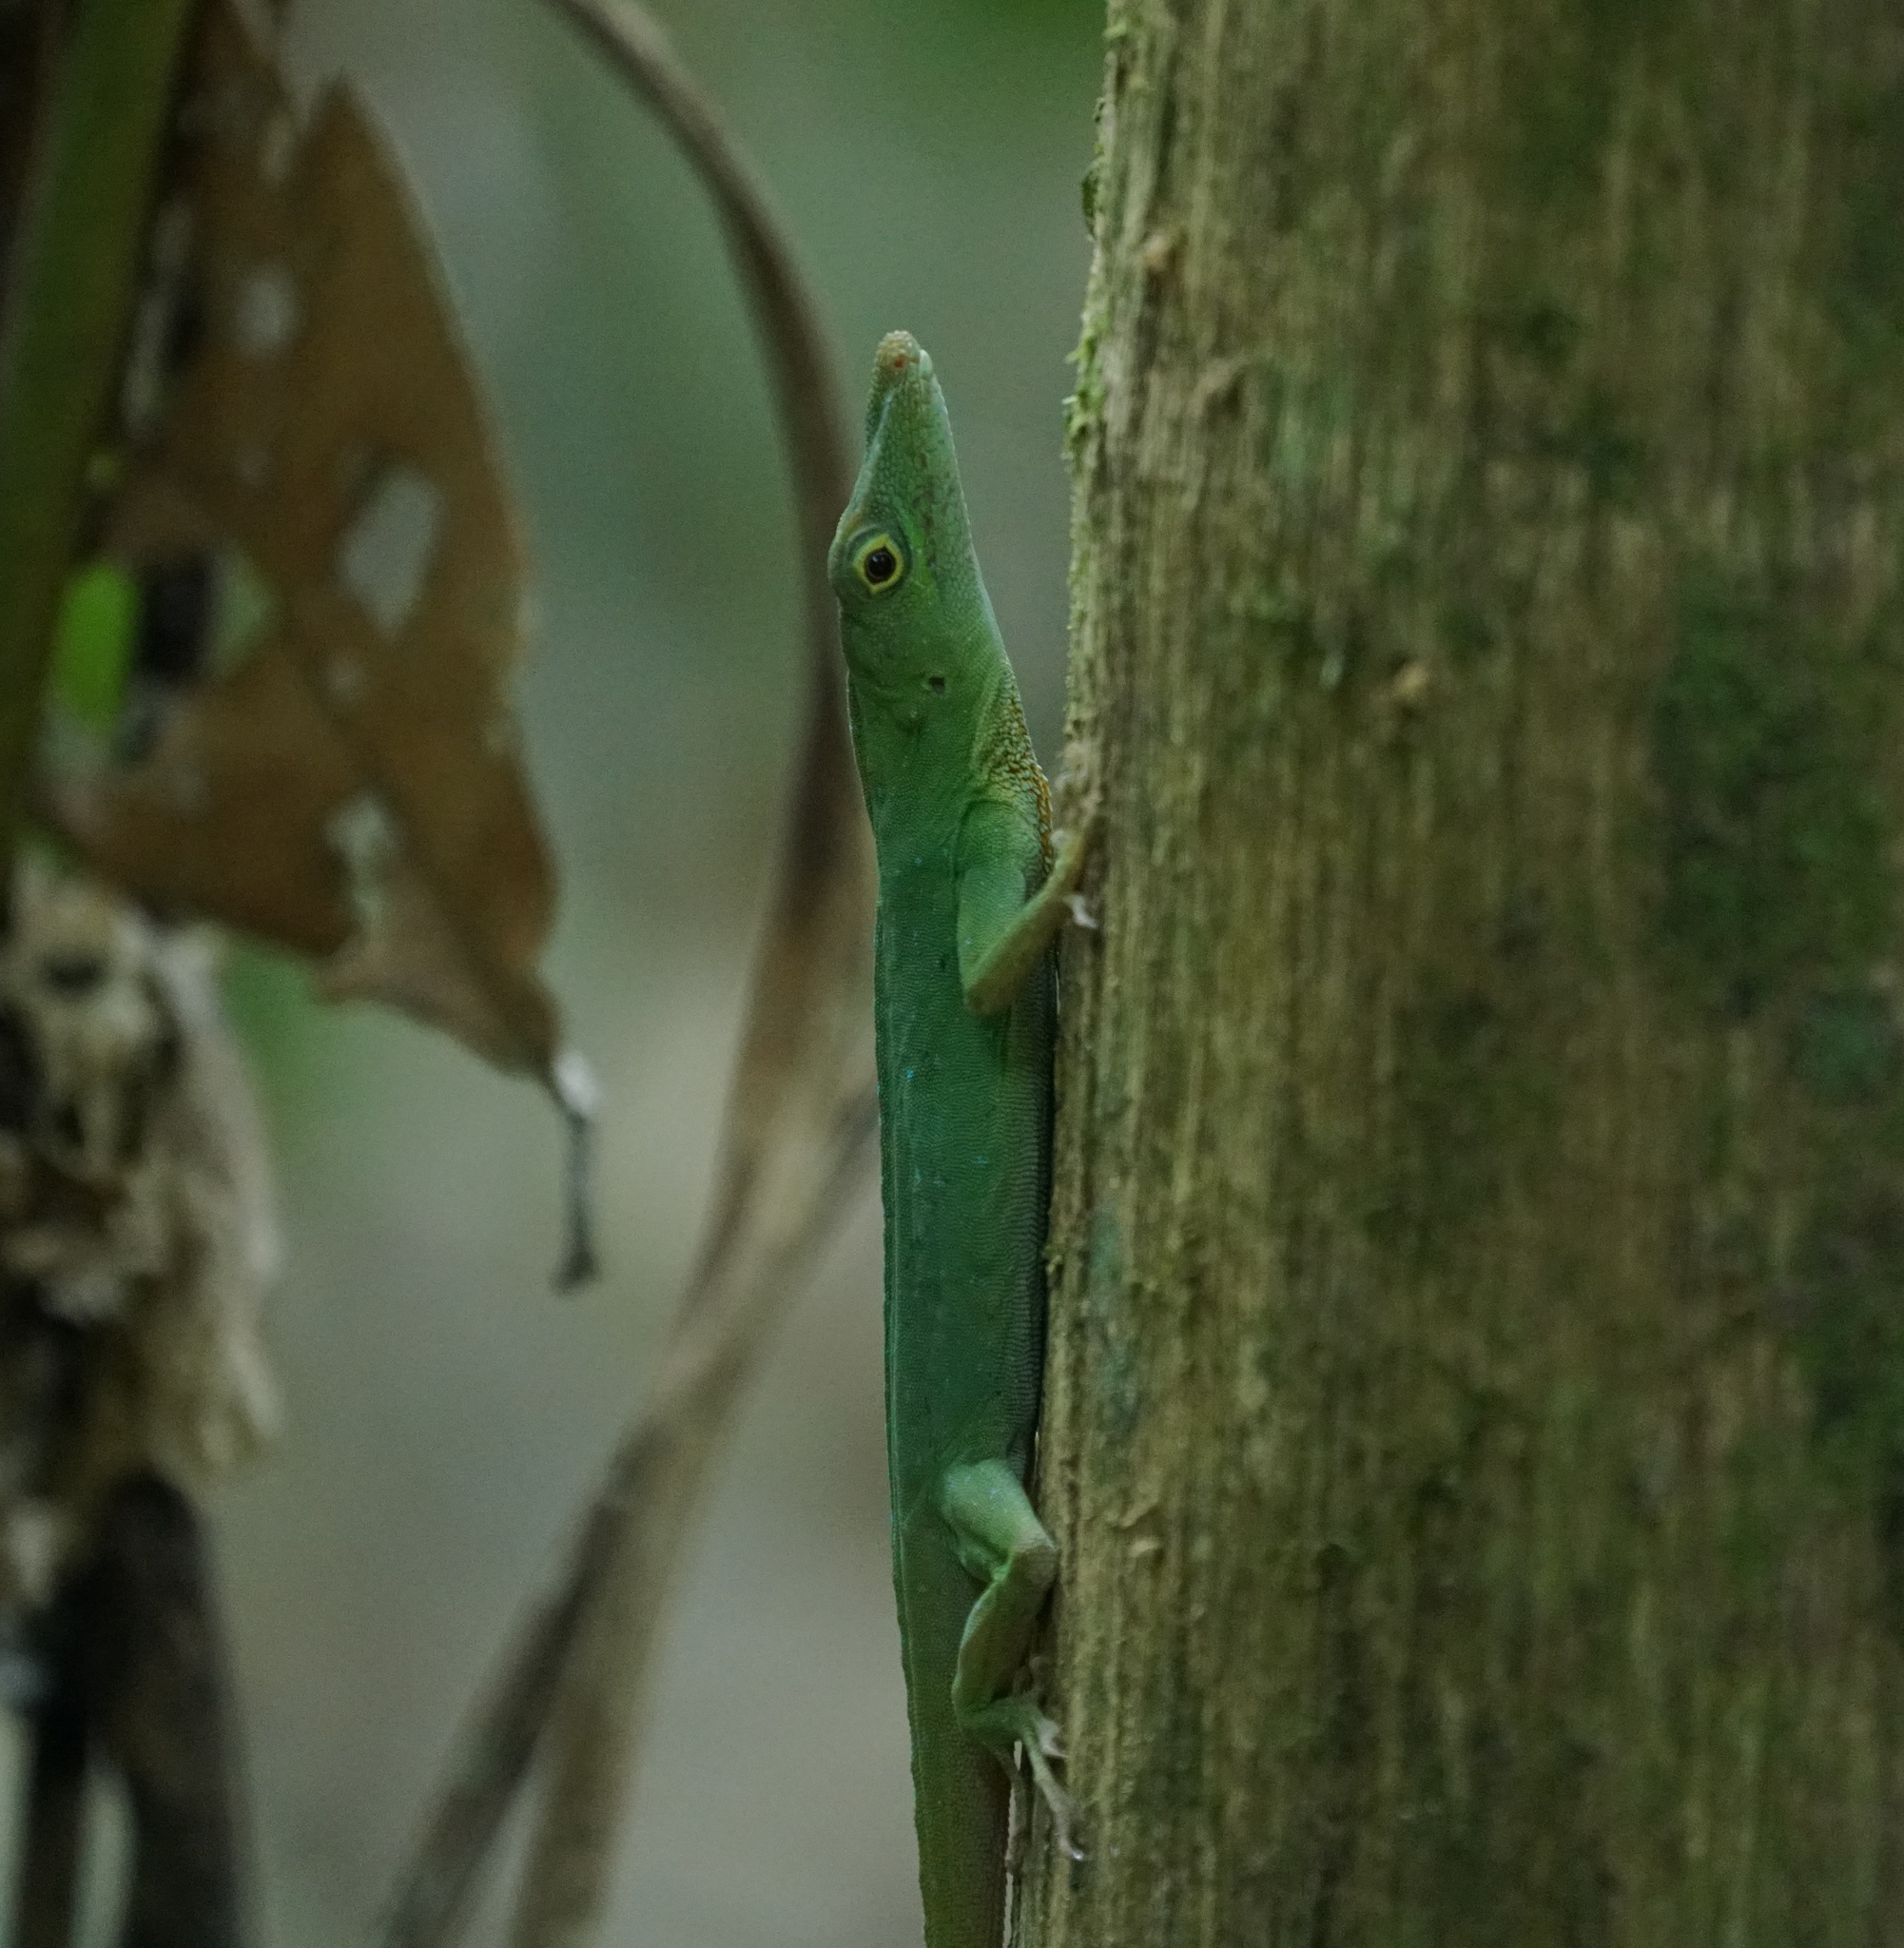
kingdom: Animalia
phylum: Chordata
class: Squamata
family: Dactyloidae
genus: Anolis
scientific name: Anolis punctatus
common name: Amazon green anole
